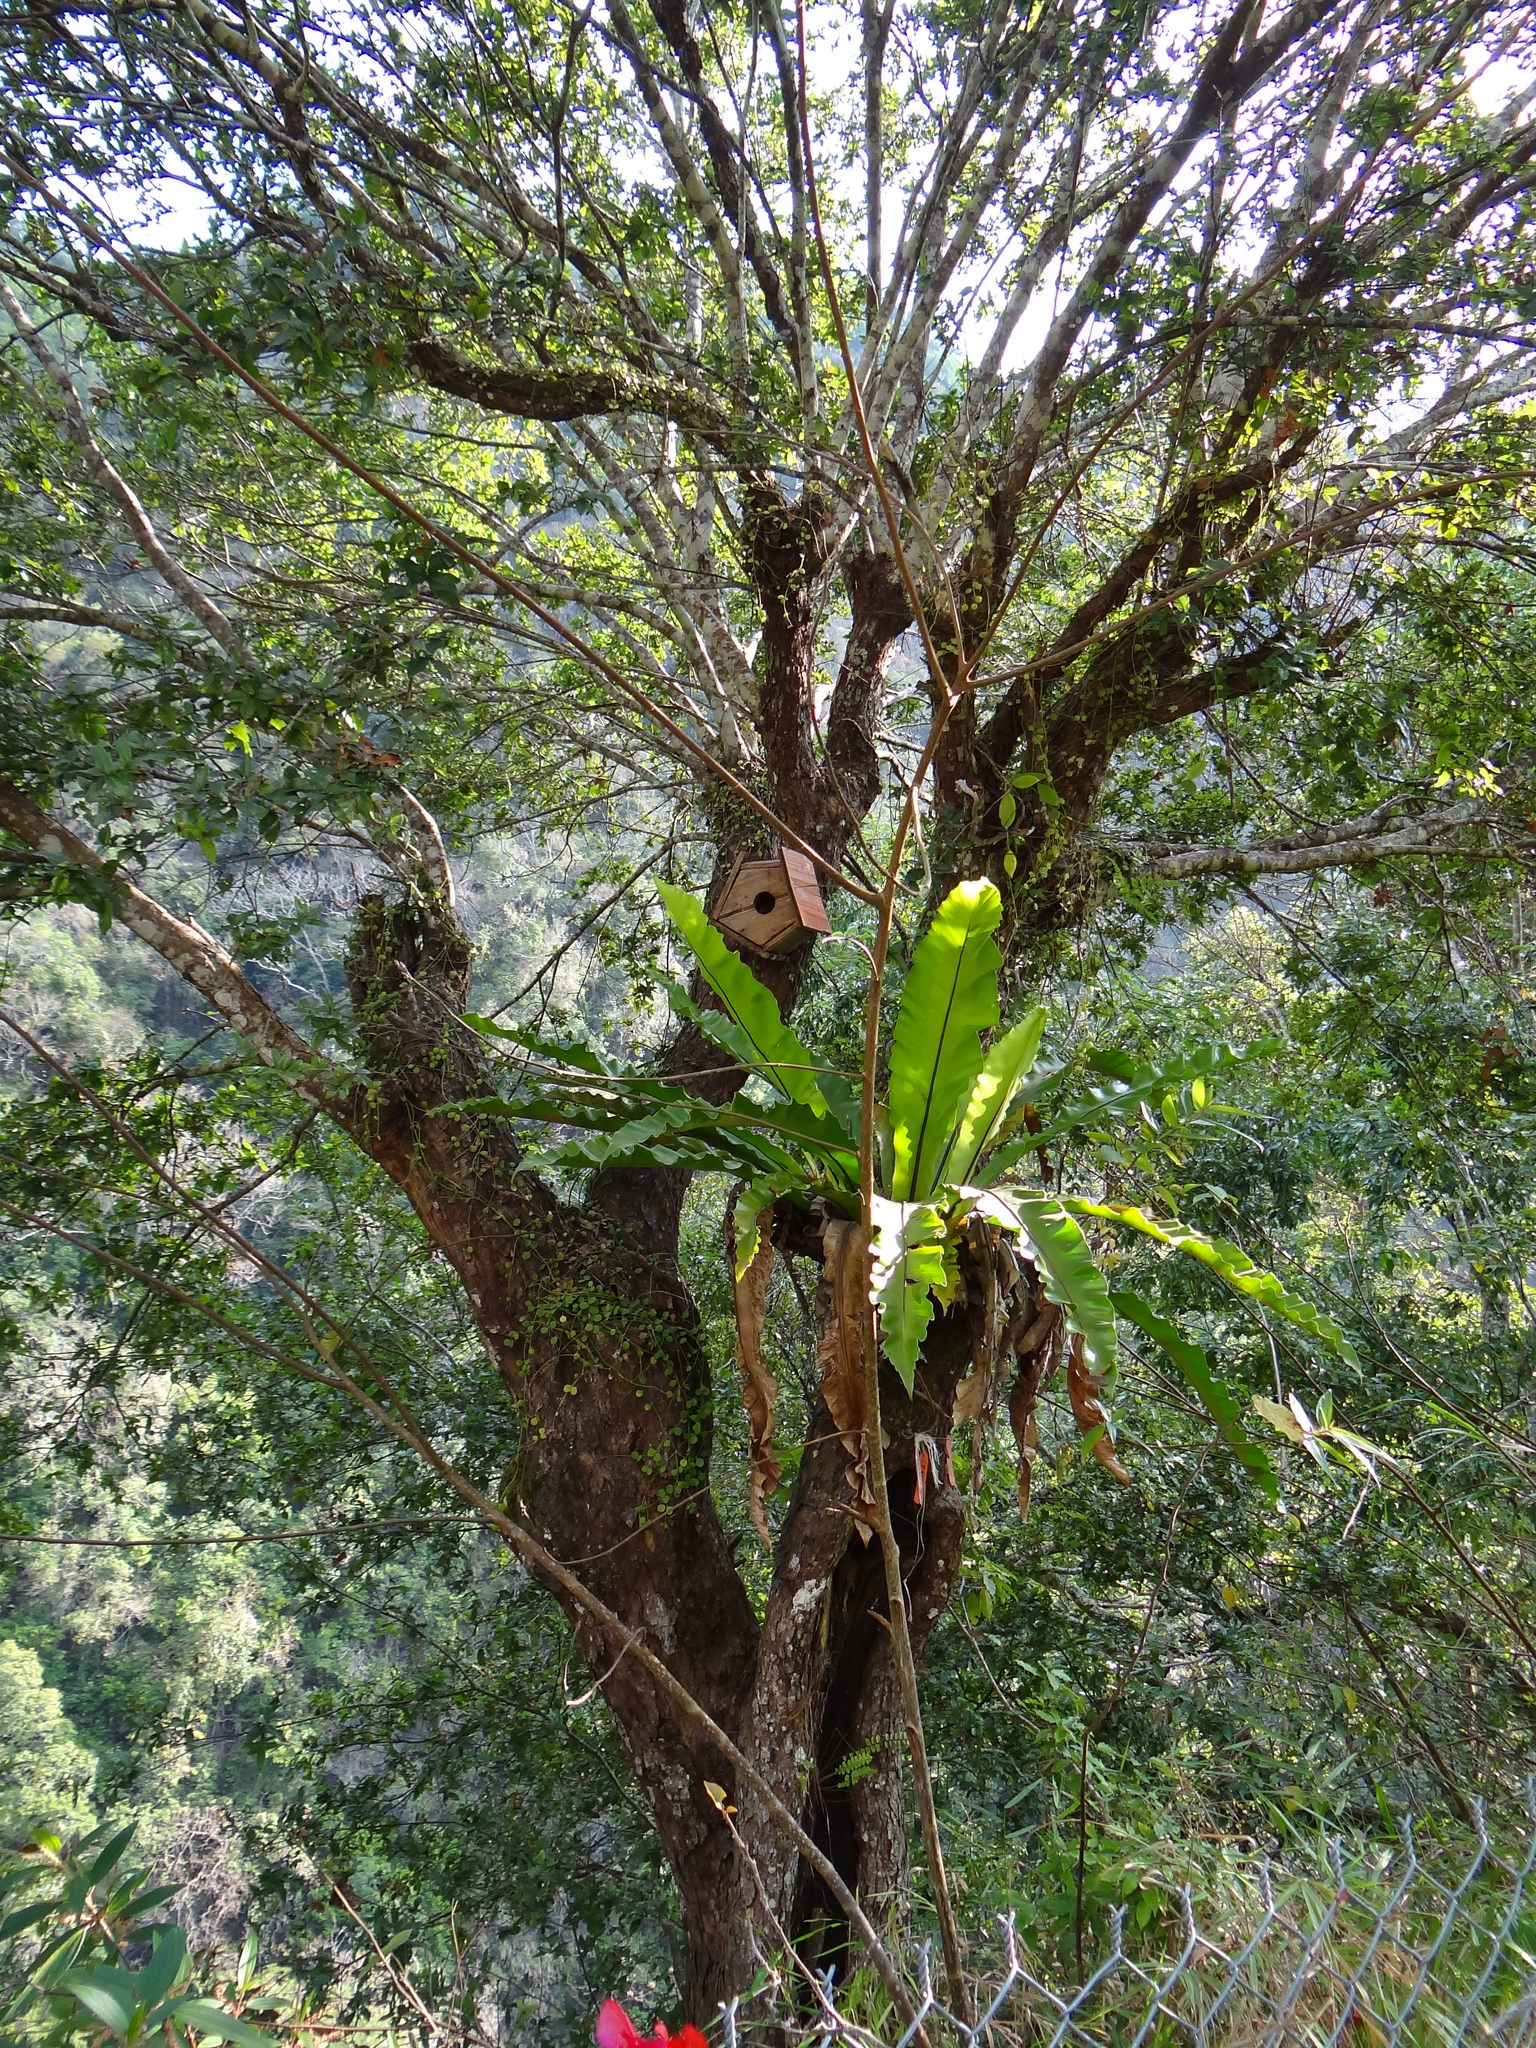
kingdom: Plantae
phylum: Tracheophyta
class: Magnoliopsida
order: Fagales
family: Fagaceae
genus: Quercus
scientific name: Quercus tarokoensis
